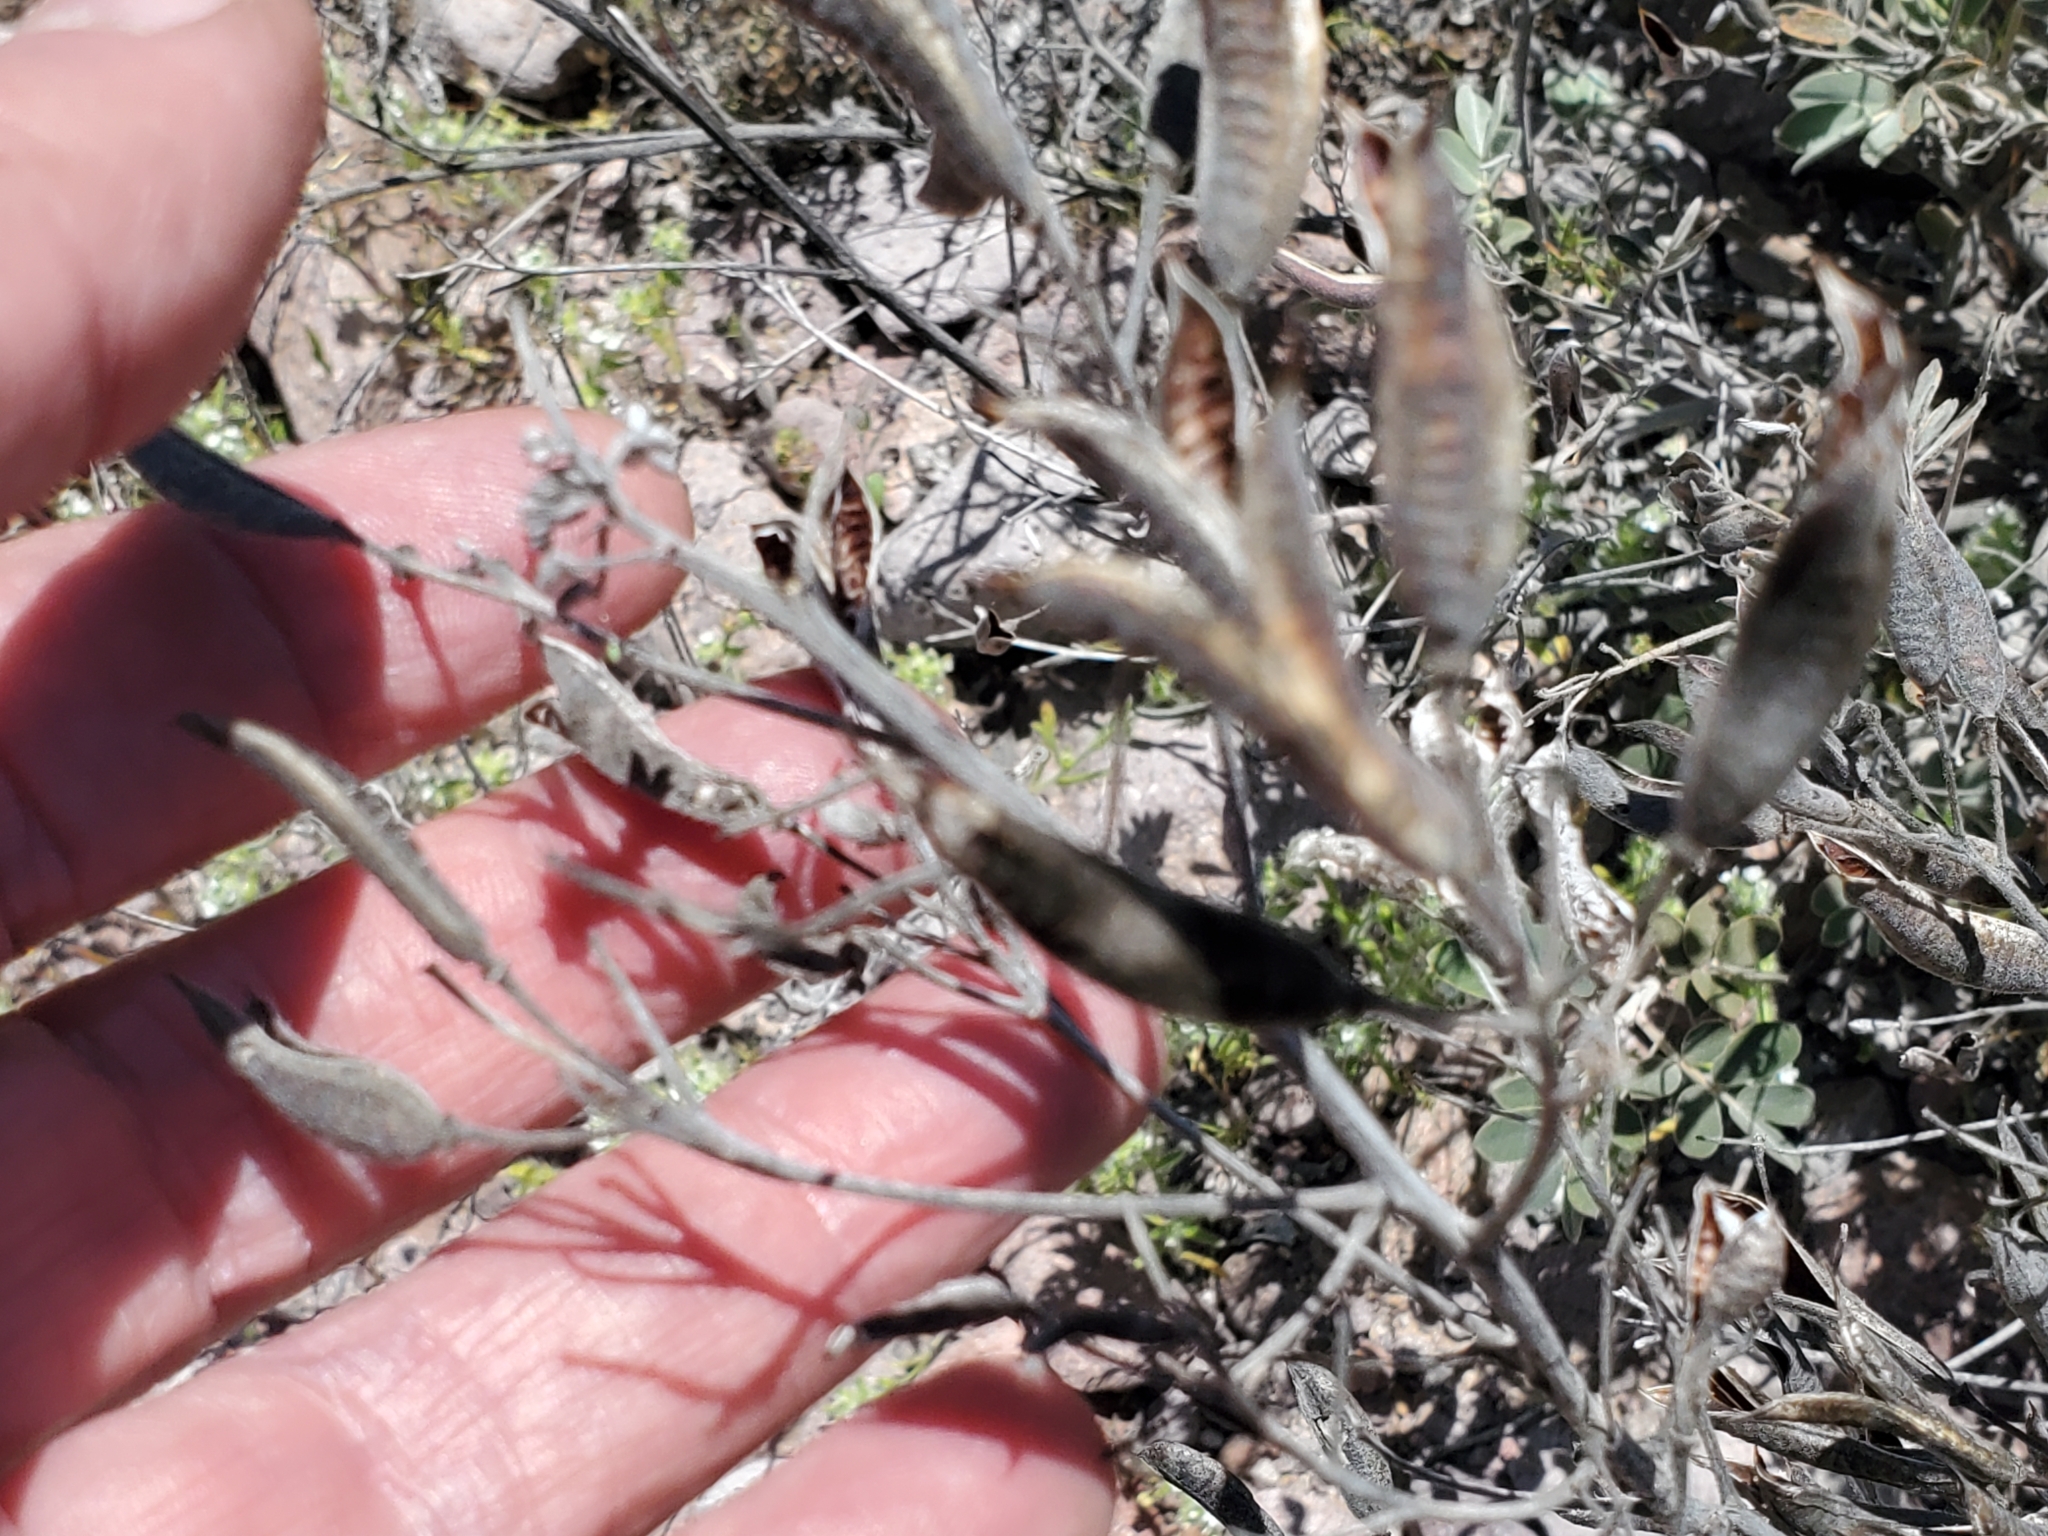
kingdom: Plantae
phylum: Tracheophyta
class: Magnoliopsida
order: Fabales
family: Fabaceae
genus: Senna
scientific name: Senna covesii
